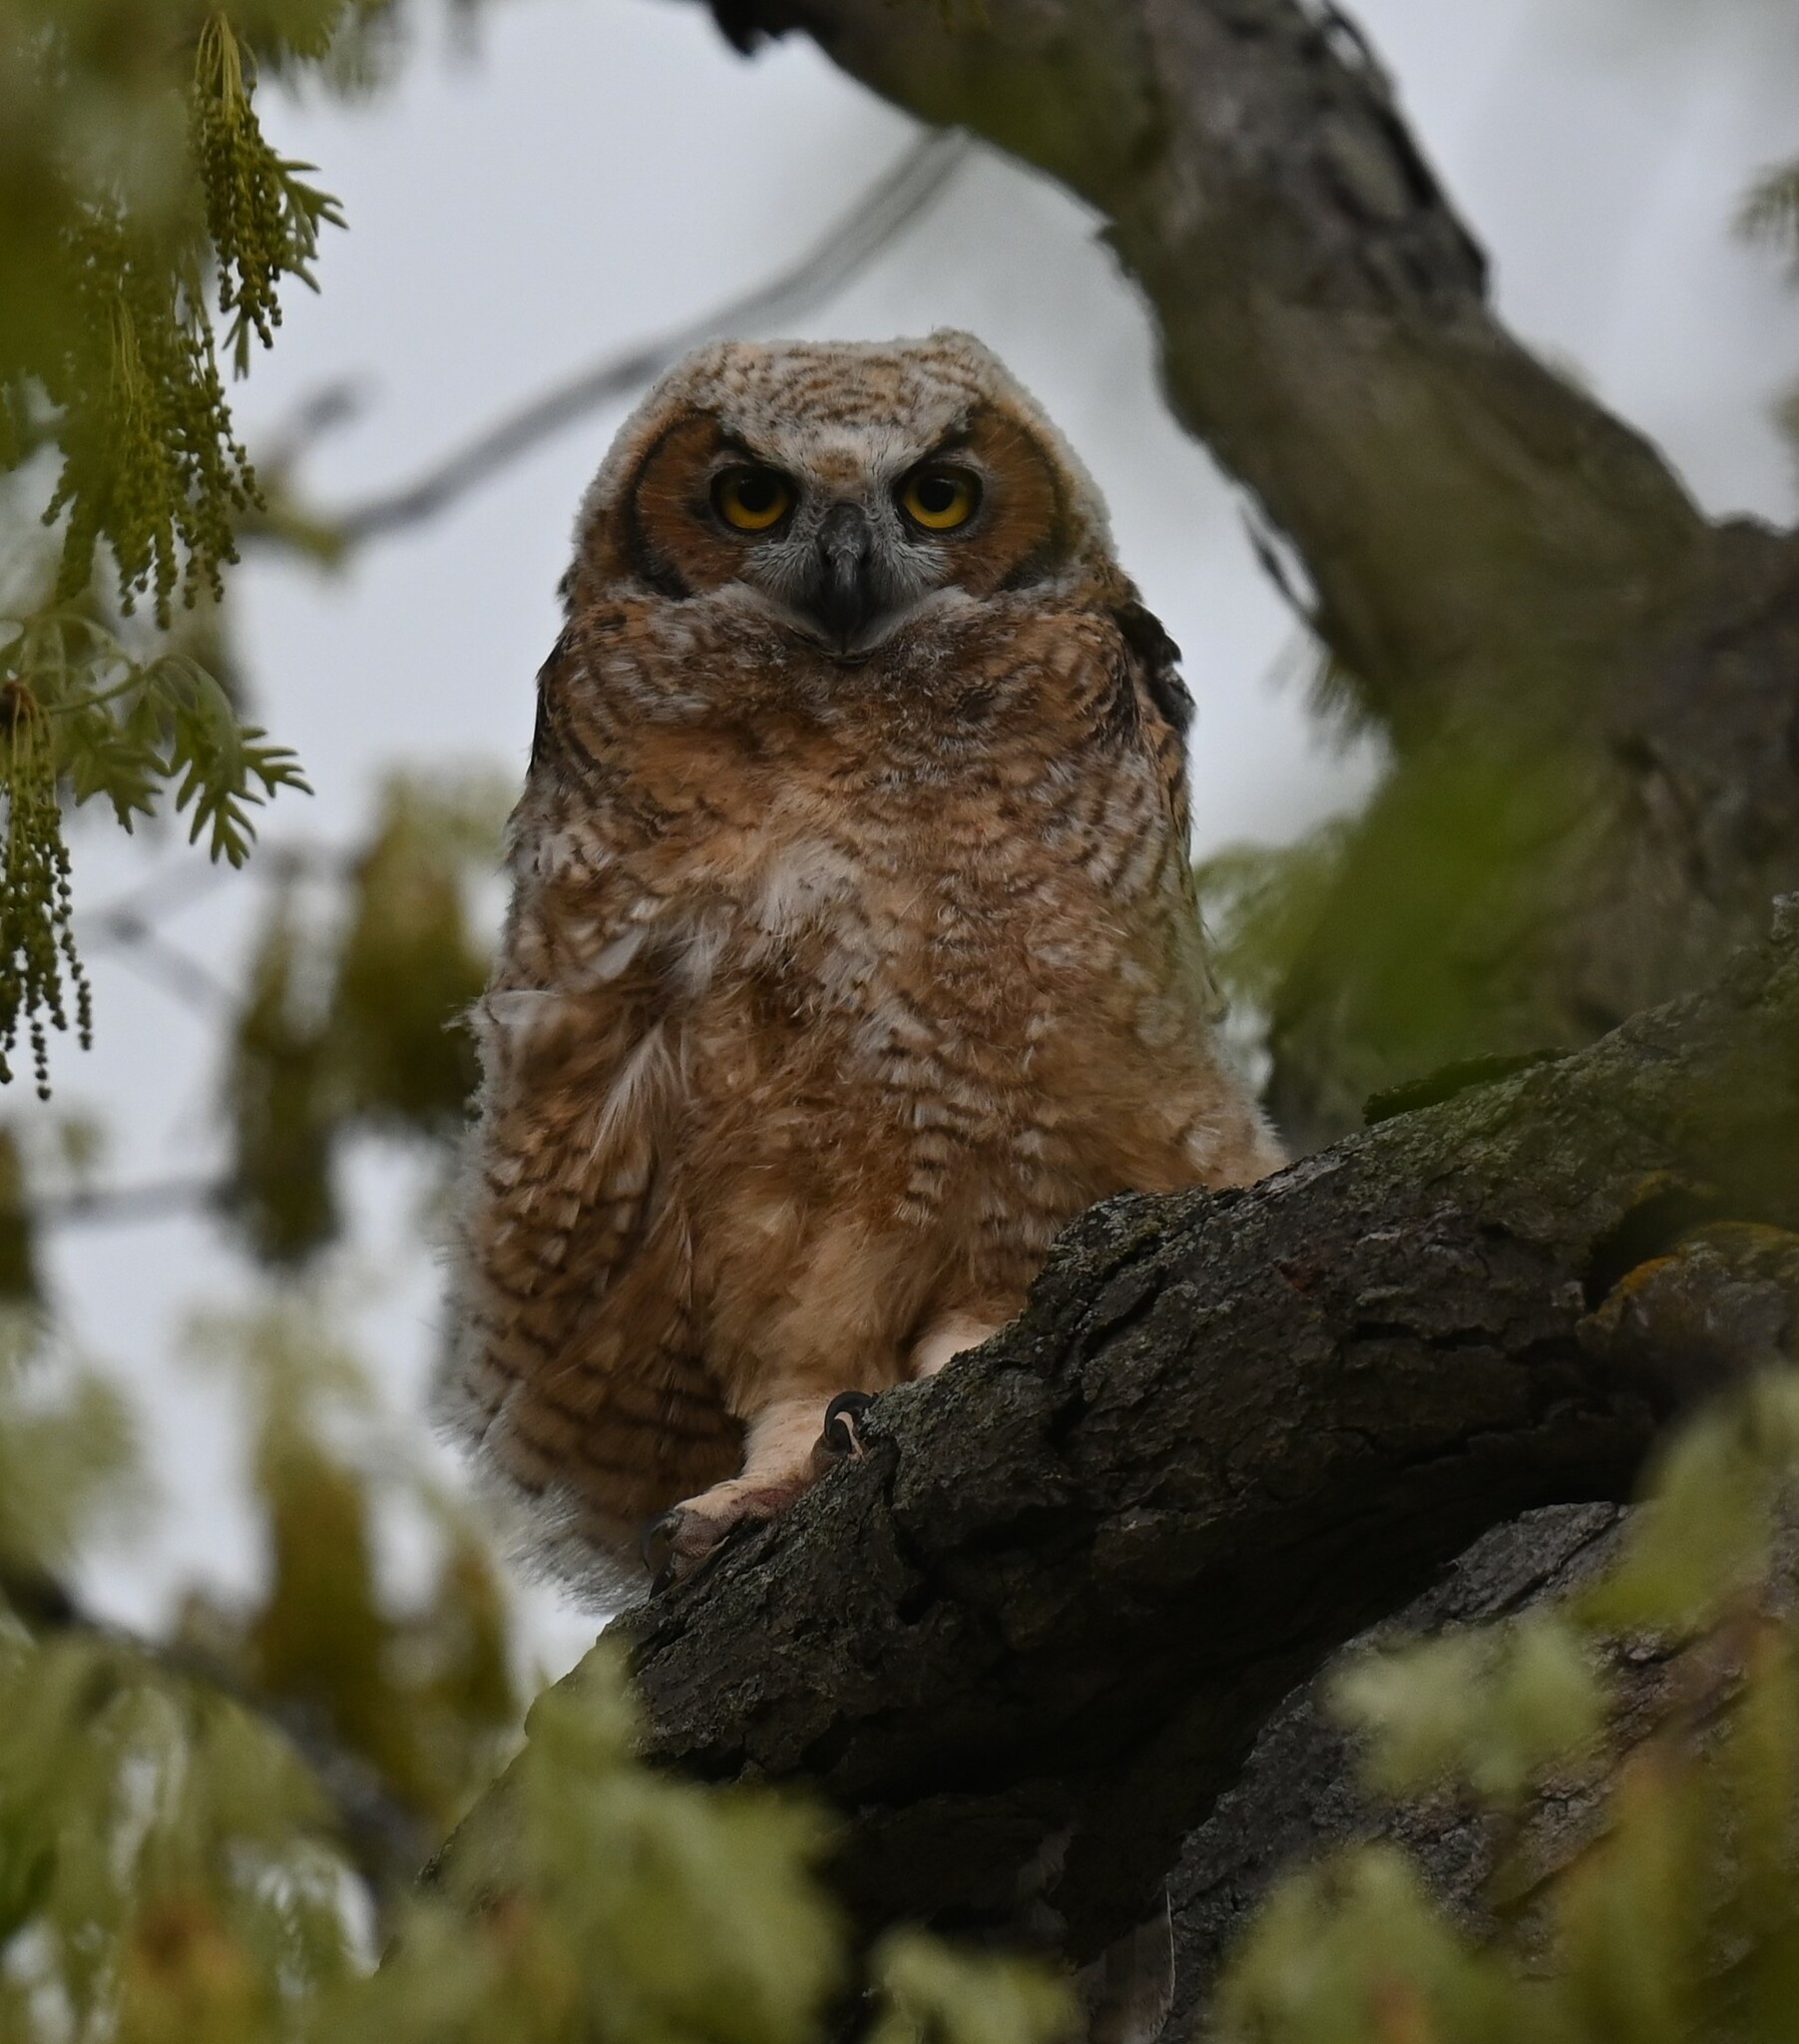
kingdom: Animalia
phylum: Chordata
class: Aves
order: Strigiformes
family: Strigidae
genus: Bubo
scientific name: Bubo virginianus
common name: Great horned owl
